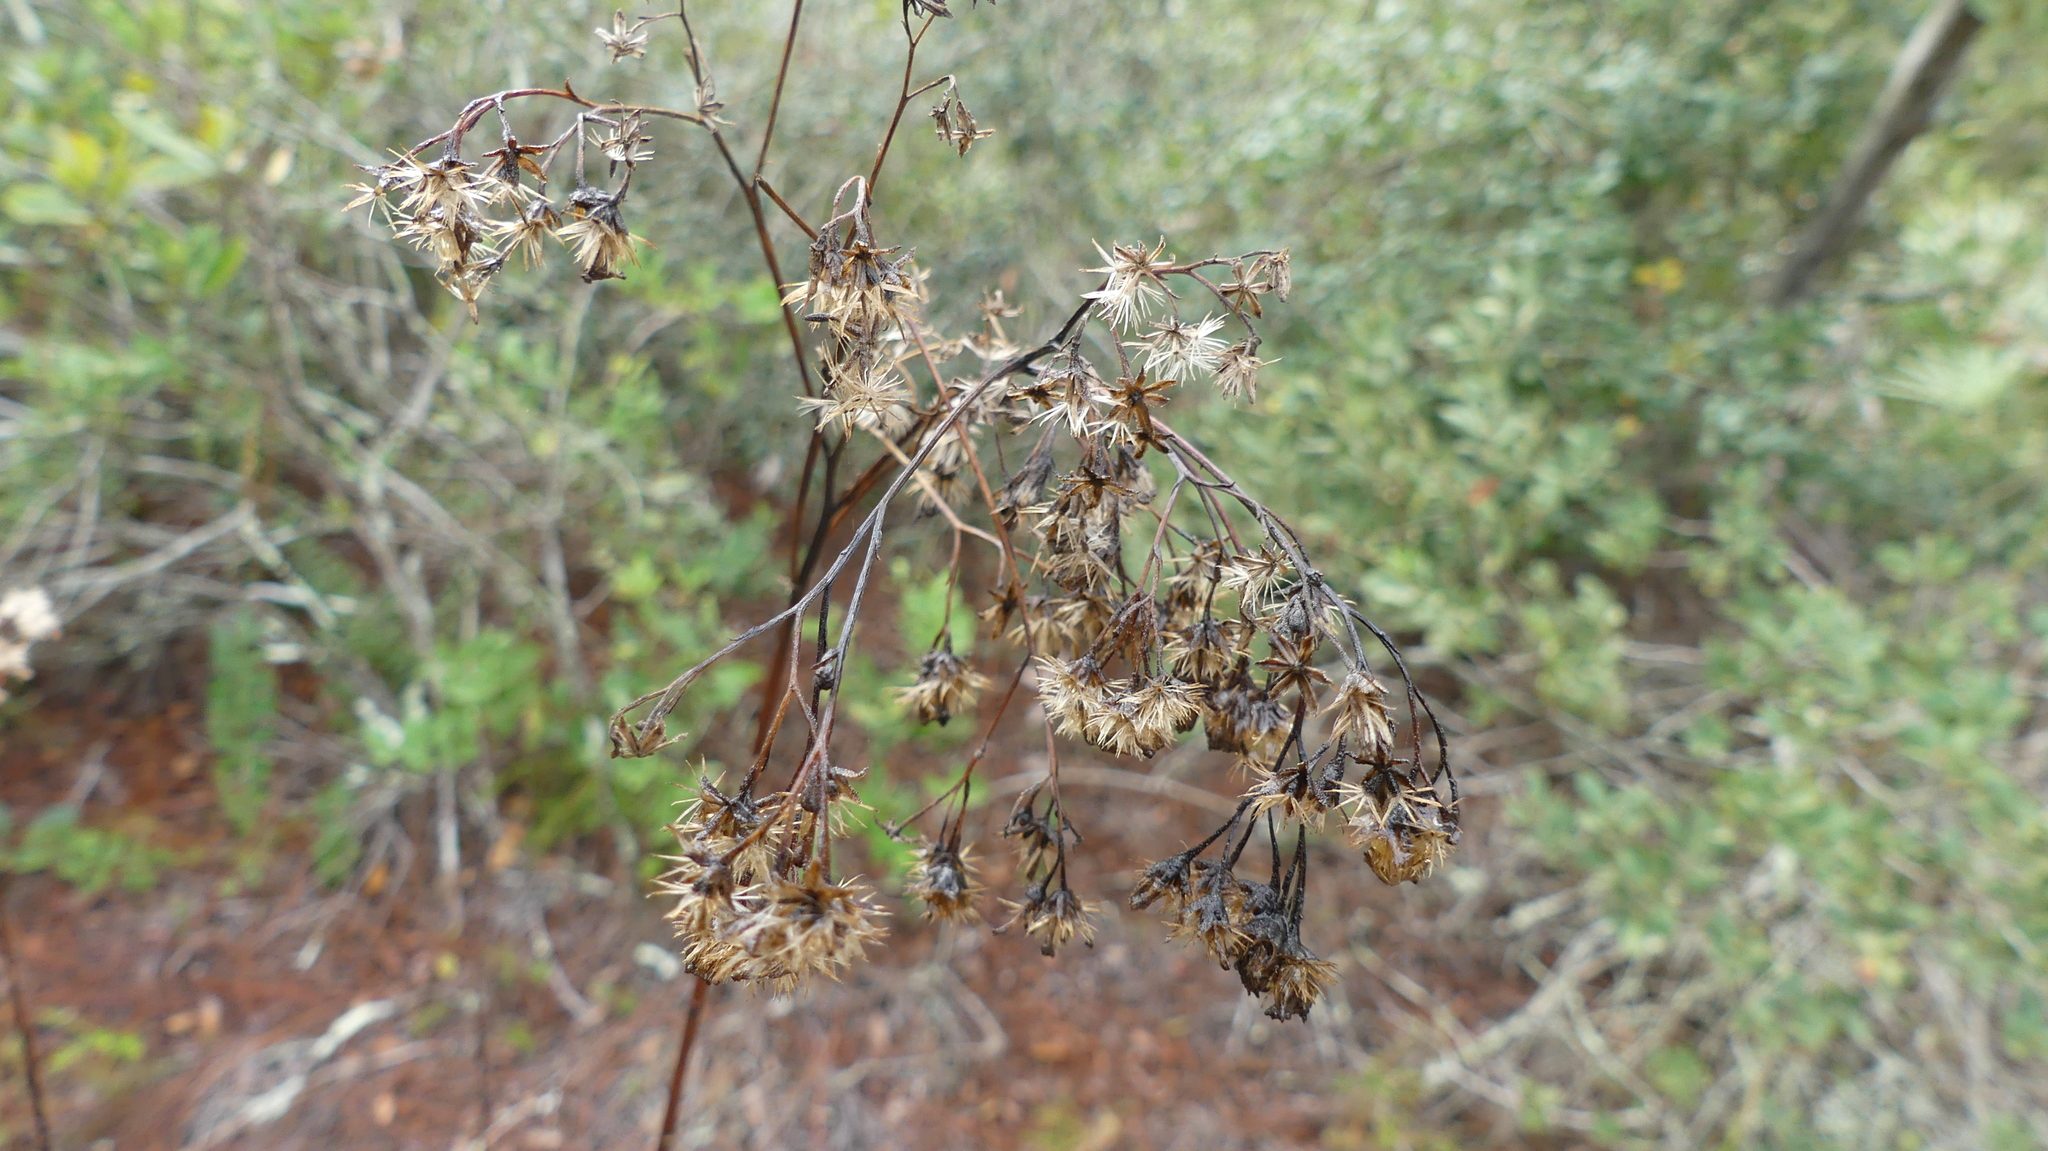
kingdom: Plantae
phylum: Tracheophyta
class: Magnoliopsida
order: Asterales
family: Asteraceae
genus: Carphephorus
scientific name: Carphephorus odoratissimus
